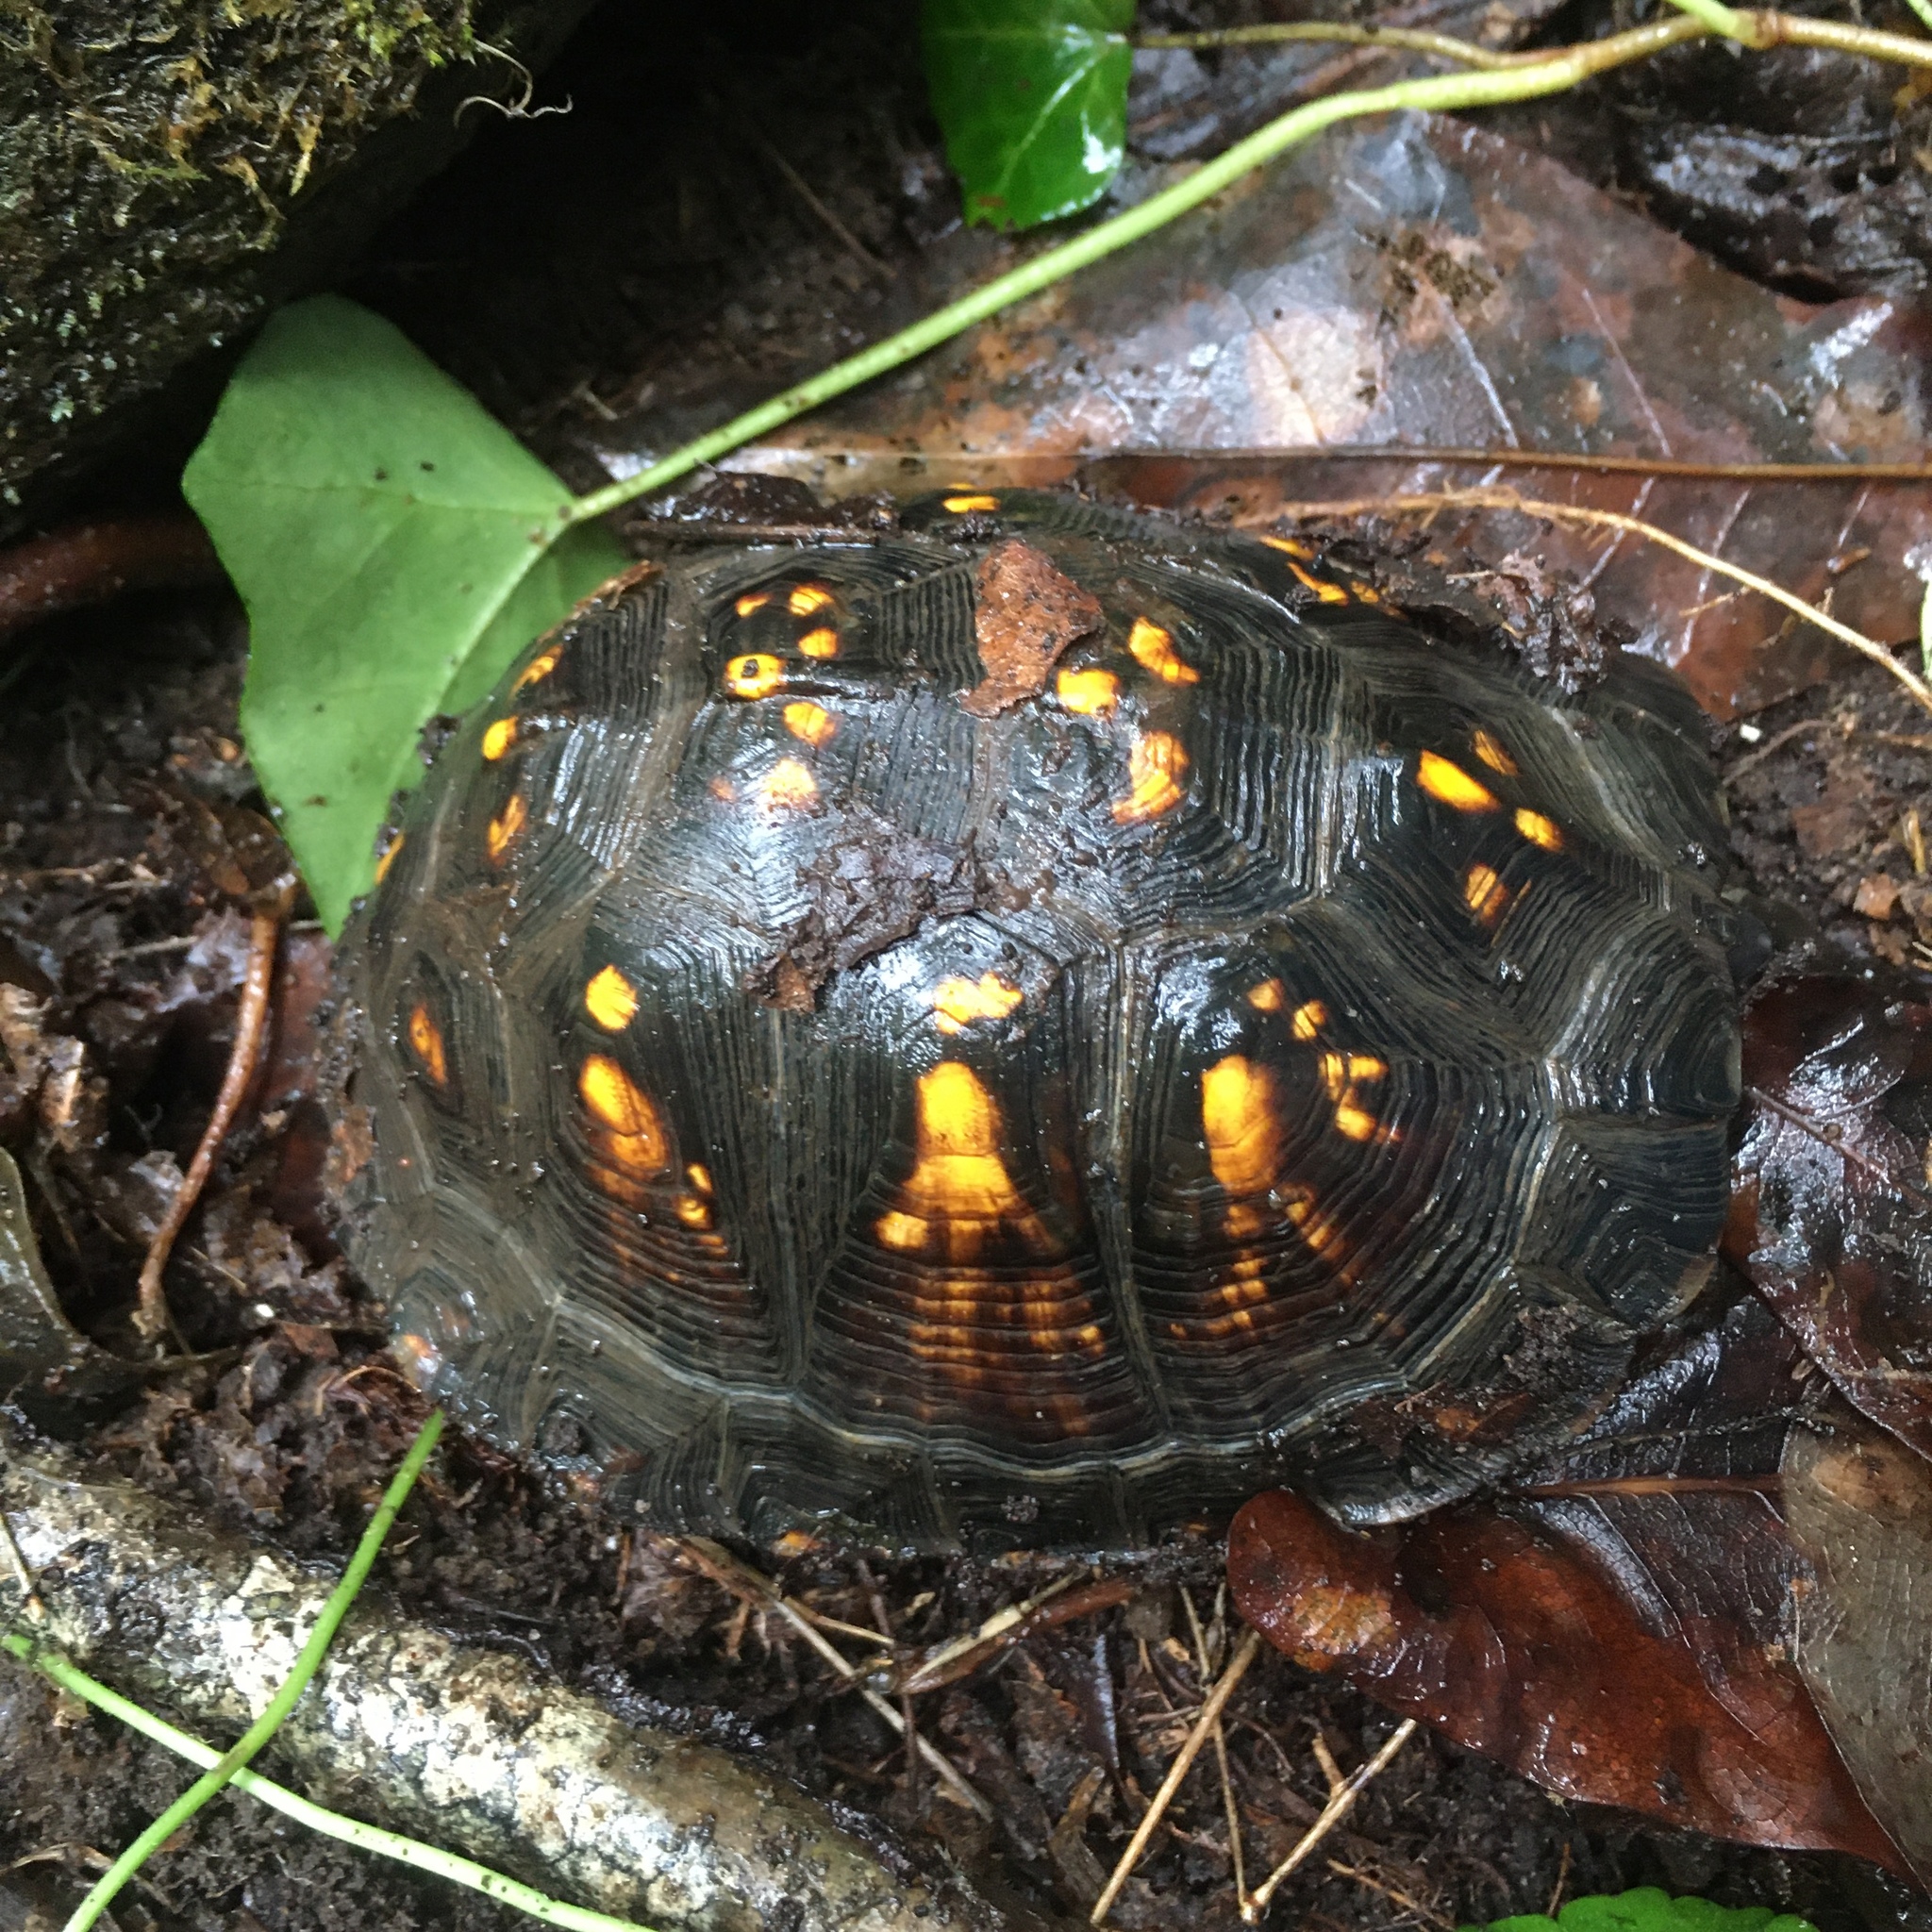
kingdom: Animalia
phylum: Chordata
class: Testudines
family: Emydidae
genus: Terrapene
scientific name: Terrapene carolina
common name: Common box turtle
